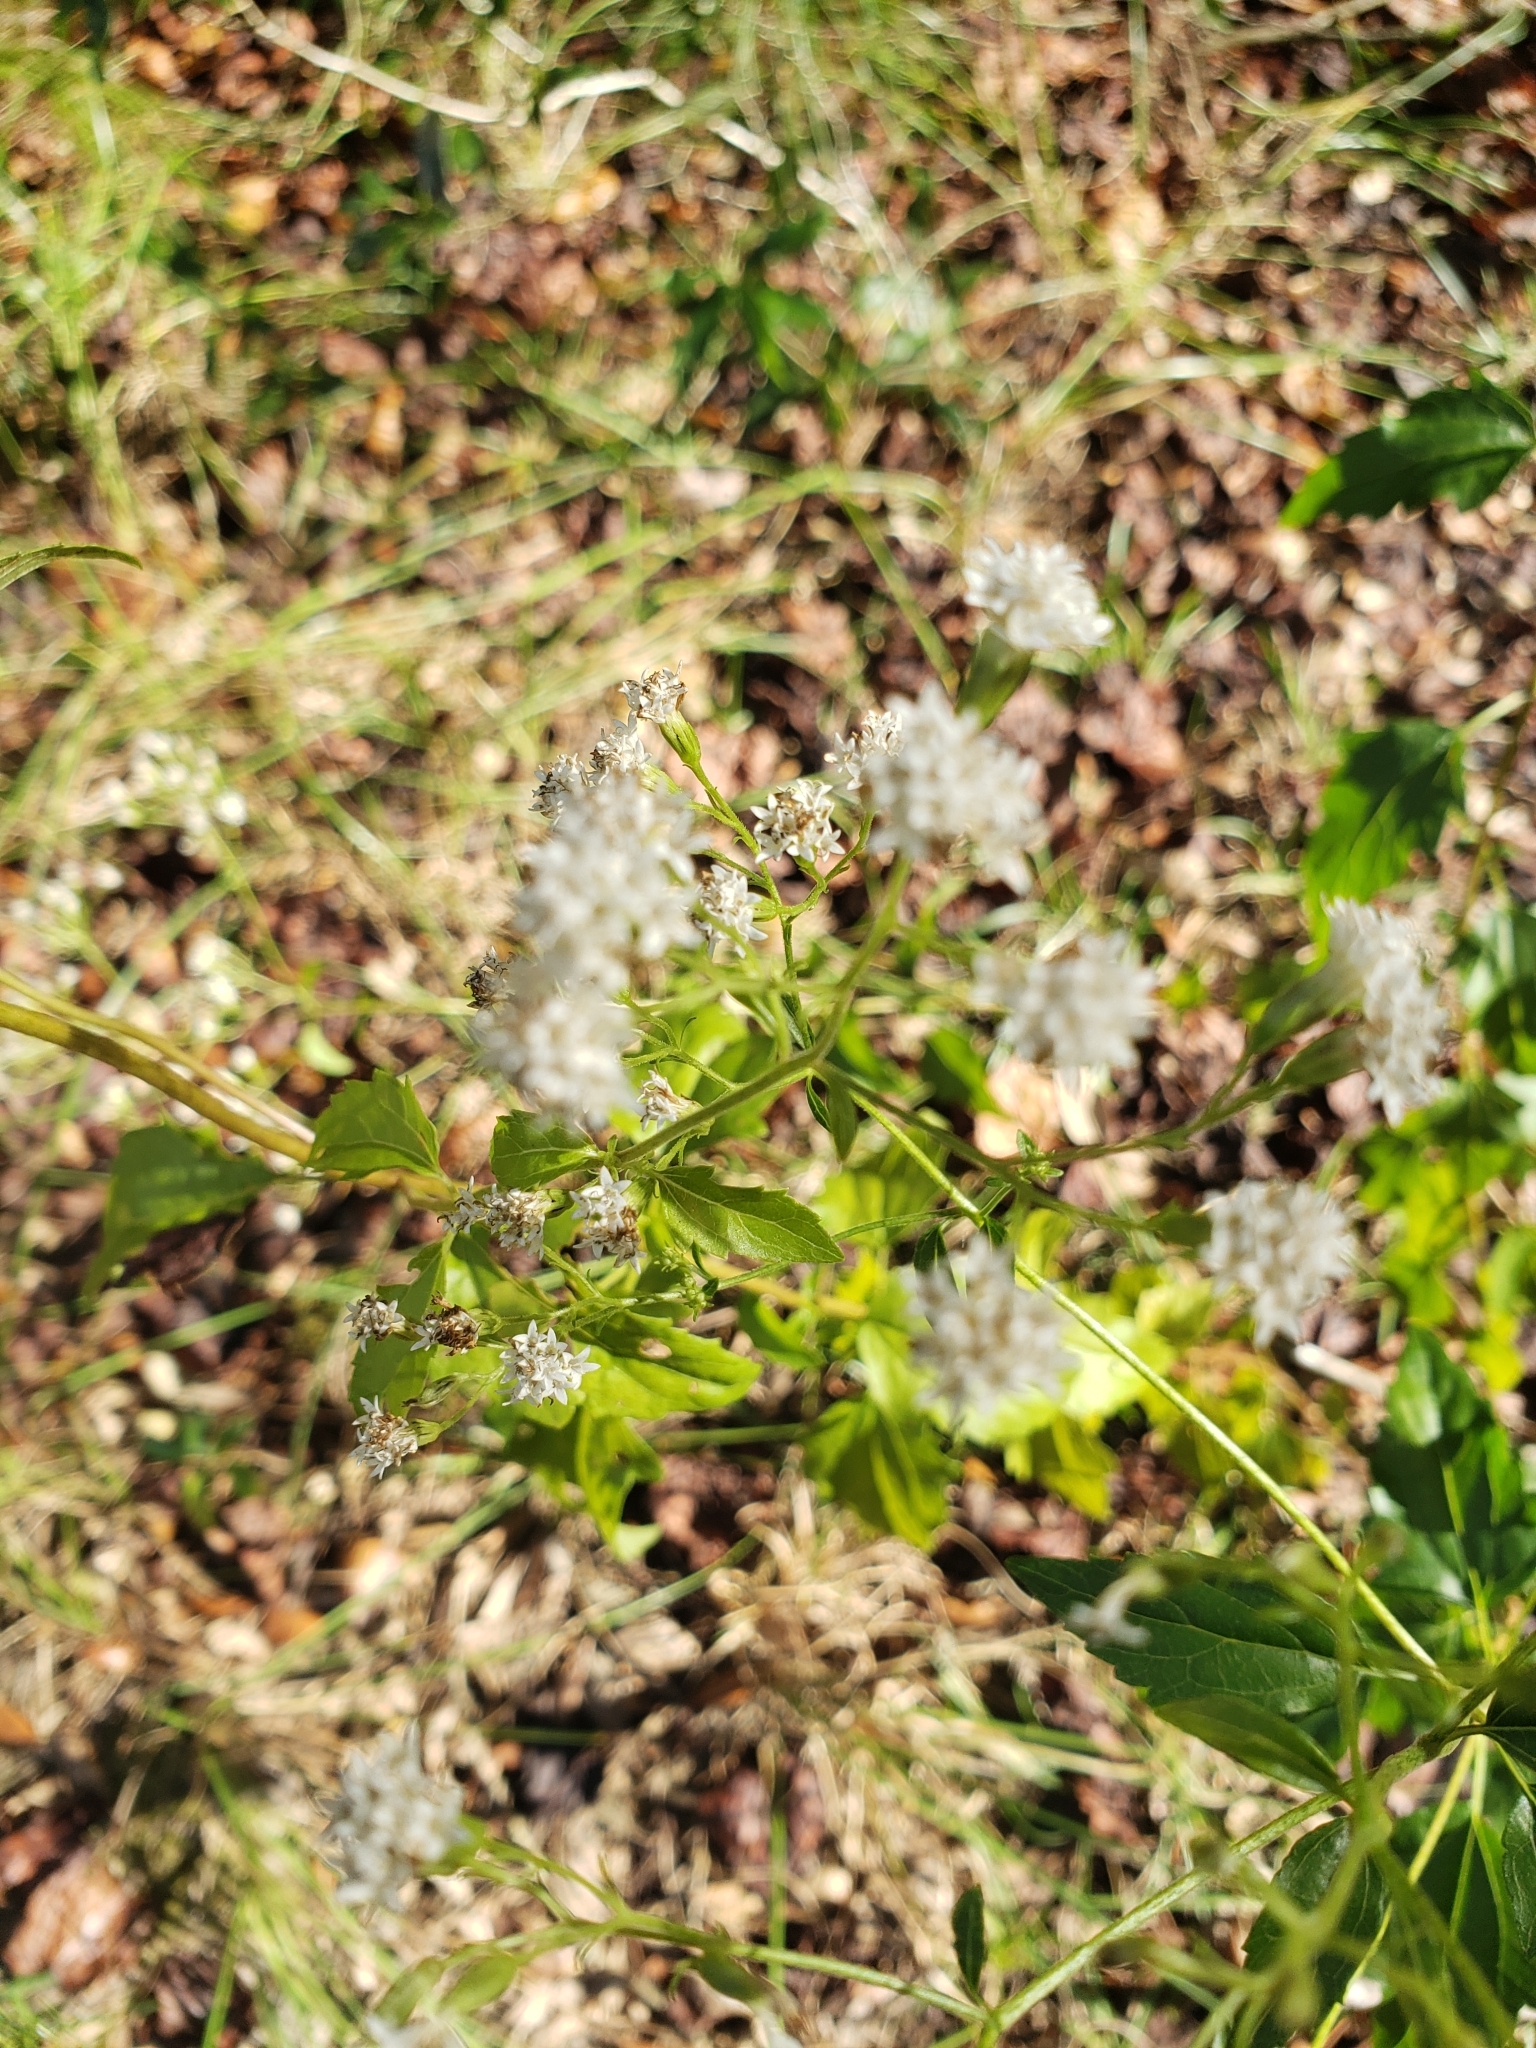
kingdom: Plantae
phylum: Tracheophyta
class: Magnoliopsida
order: Asterales
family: Asteraceae
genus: Ageratina
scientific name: Ageratina jucunda
